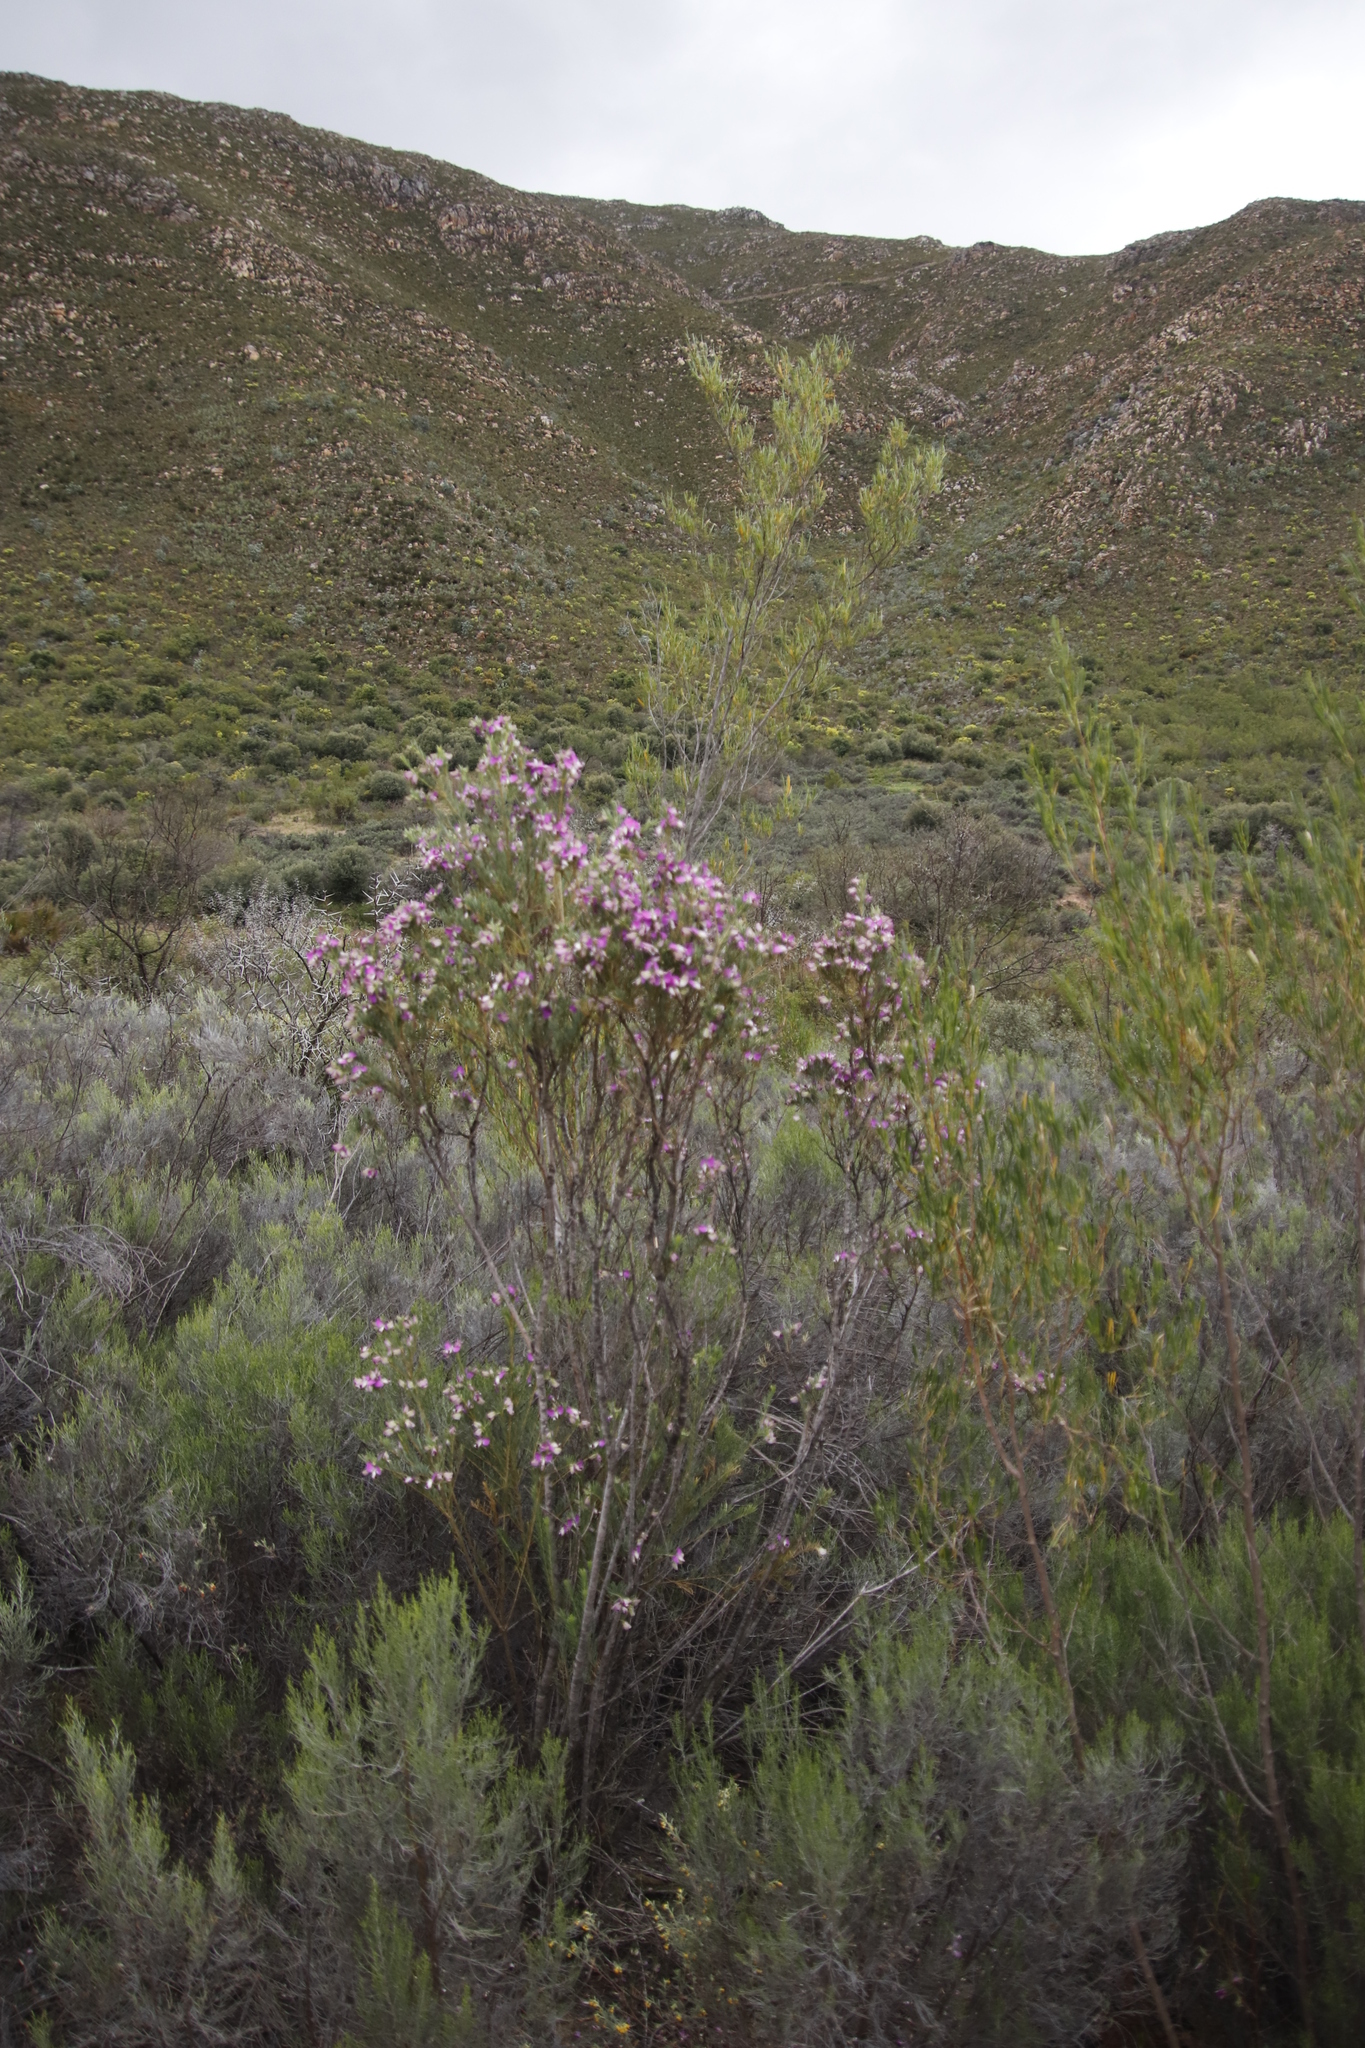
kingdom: Plantae
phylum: Tracheophyta
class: Magnoliopsida
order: Fabales
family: Polygalaceae
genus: Polygala
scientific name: Polygala myrtifolia
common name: Myrtle-leaf milkwort
